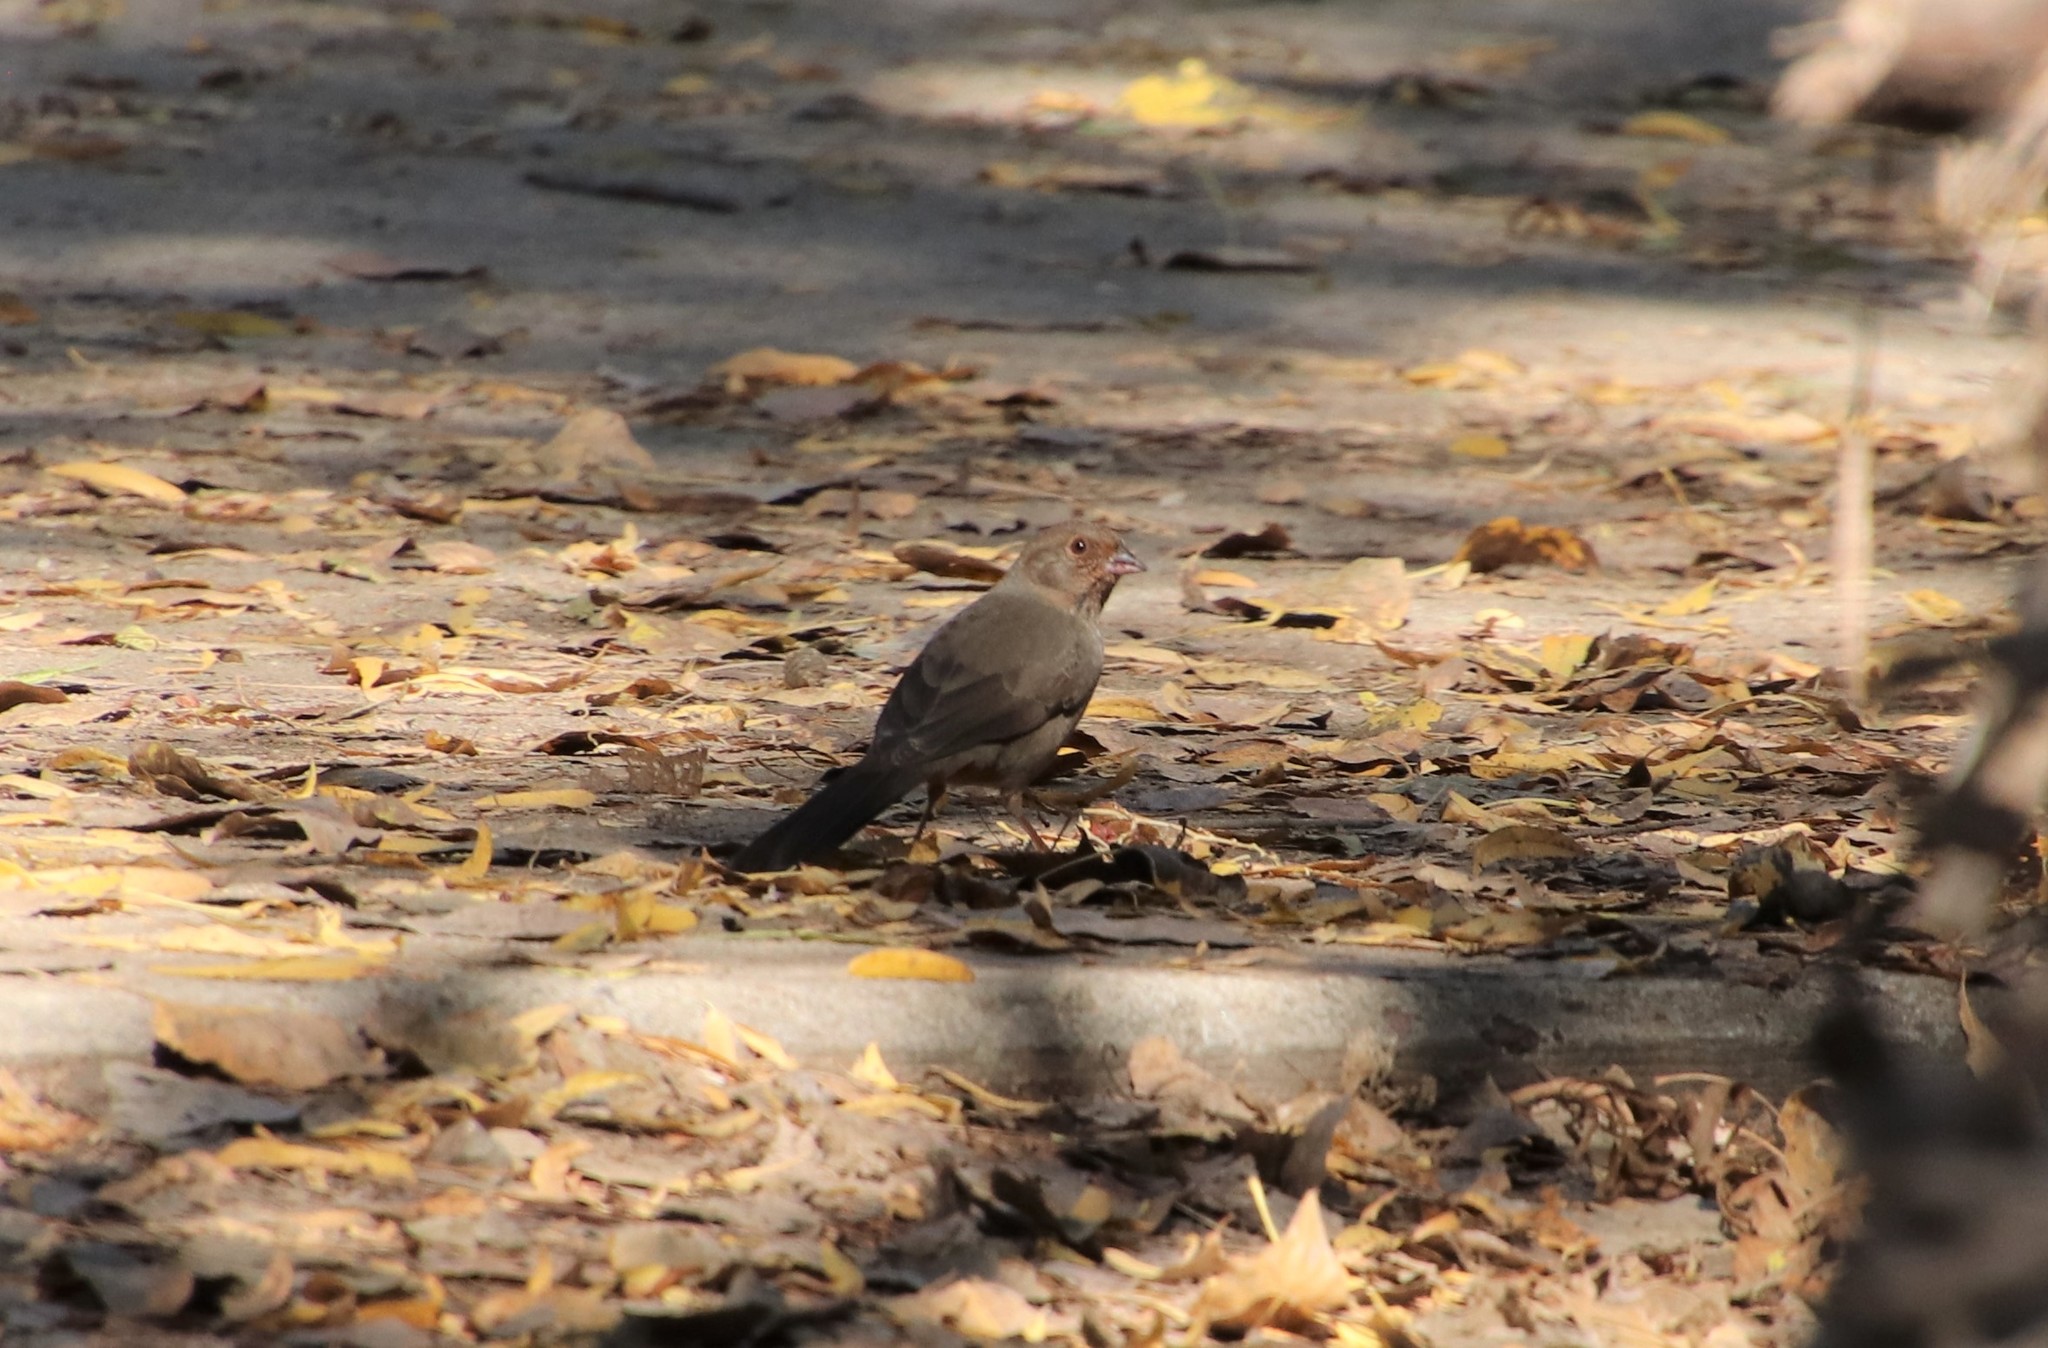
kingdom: Animalia
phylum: Chordata
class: Aves
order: Passeriformes
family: Passerellidae
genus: Melozone
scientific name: Melozone crissalis
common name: California towhee
